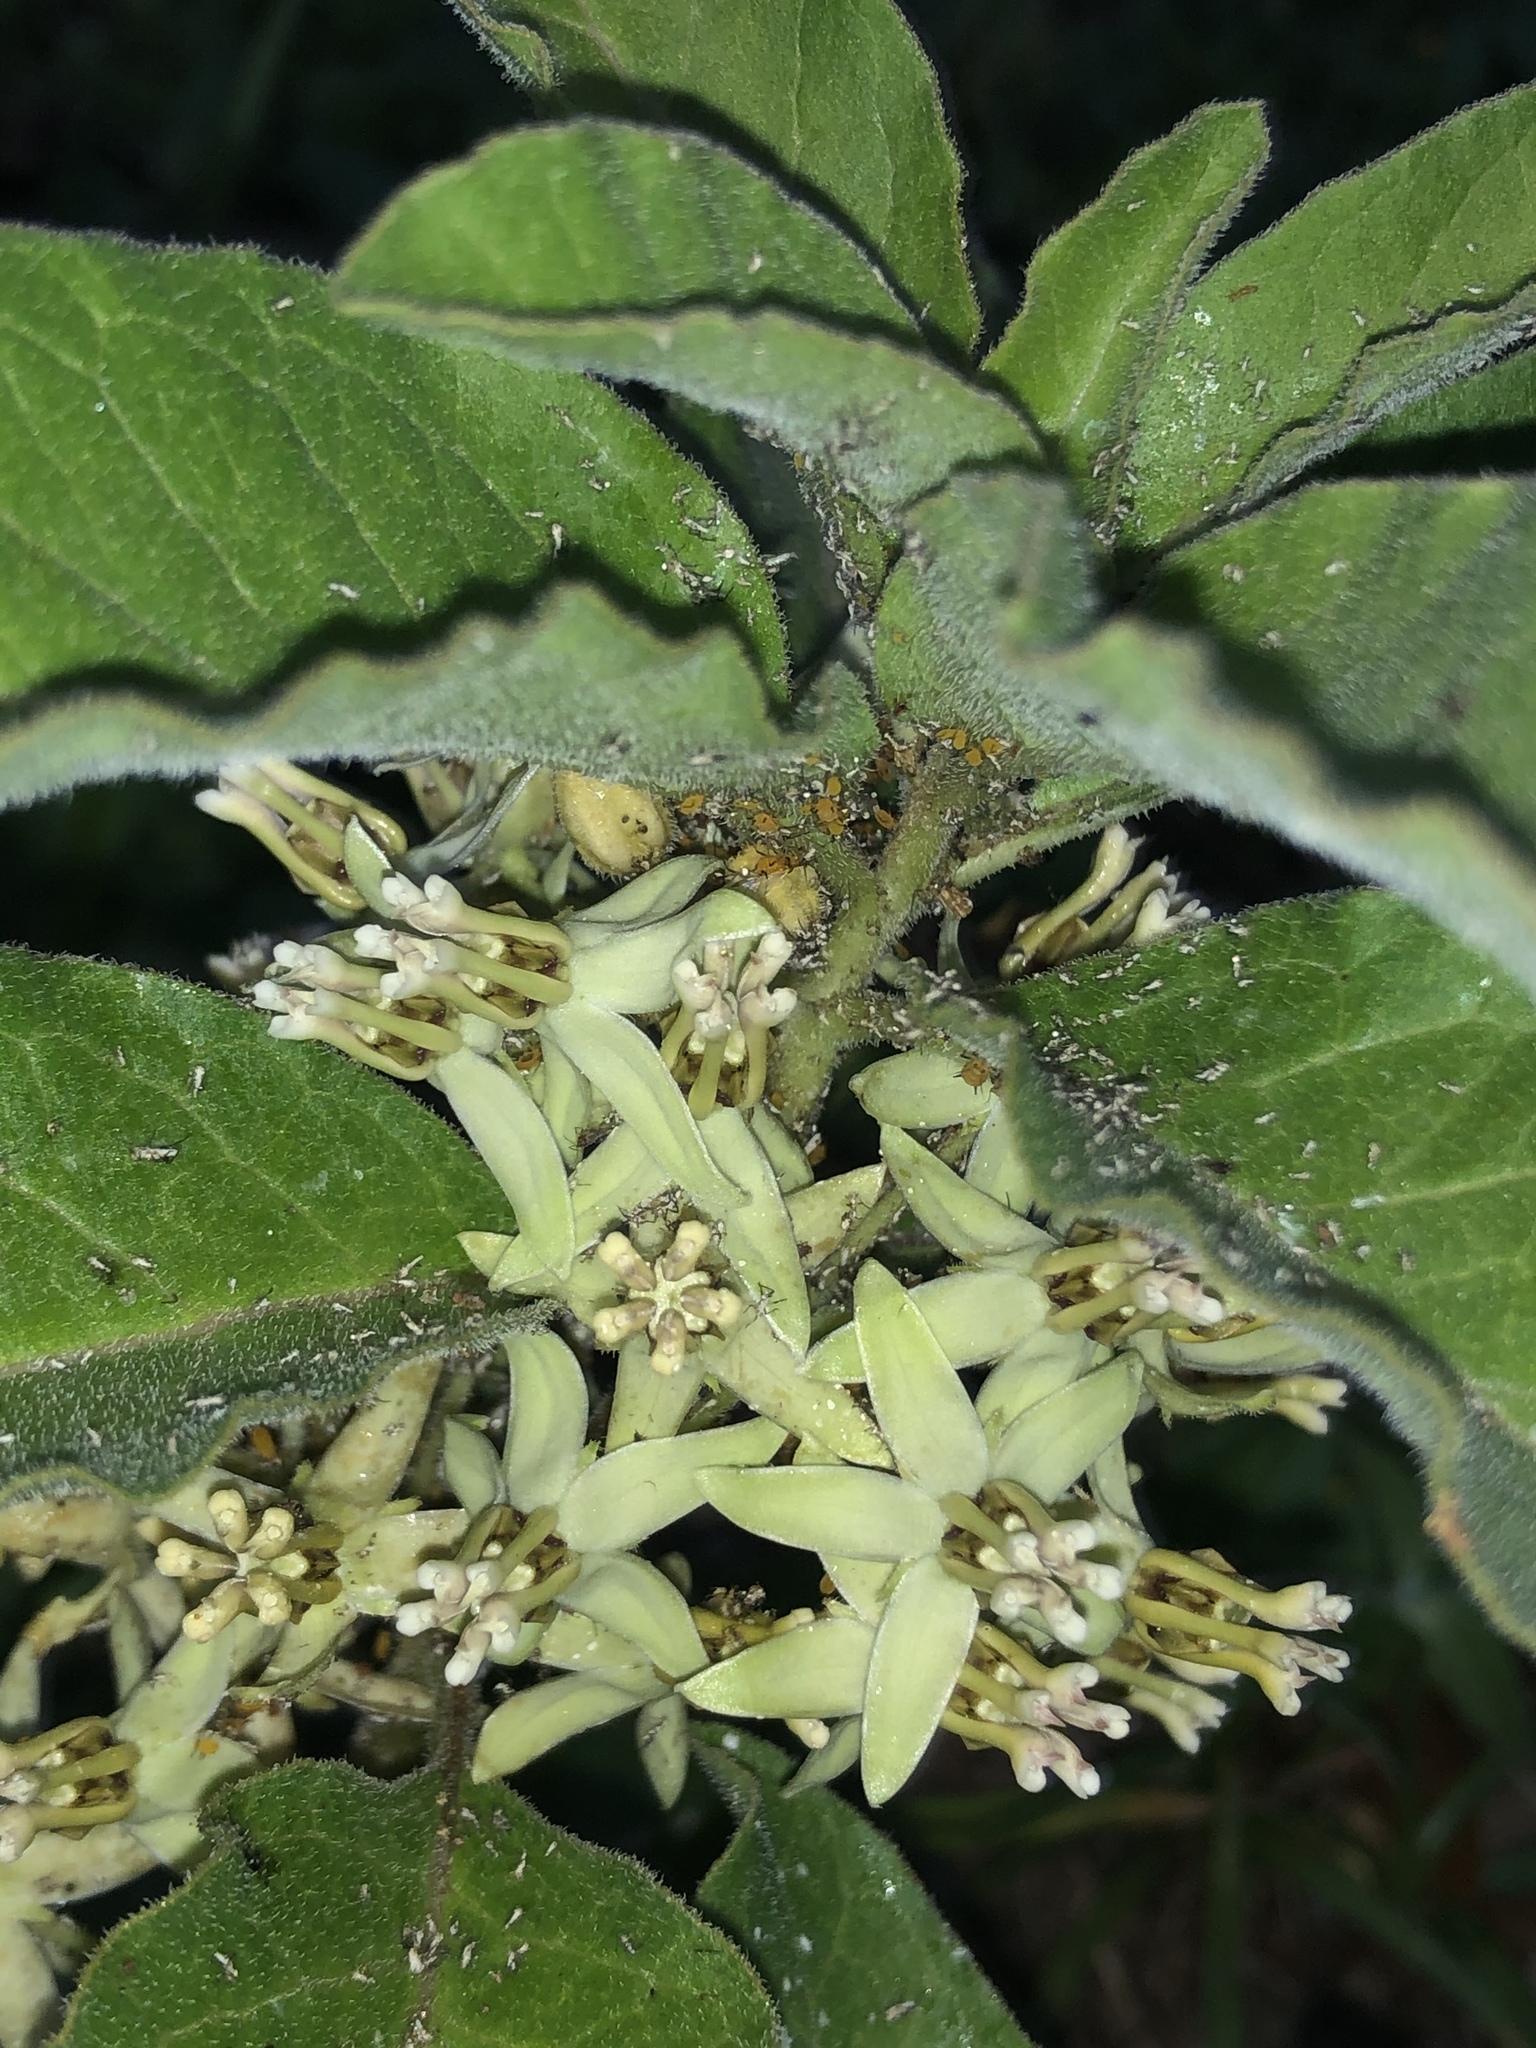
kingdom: Plantae
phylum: Tracheophyta
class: Magnoliopsida
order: Gentianales
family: Apocynaceae
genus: Asclepias
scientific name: Asclepias oenotheroides
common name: Zizotes milkweed
